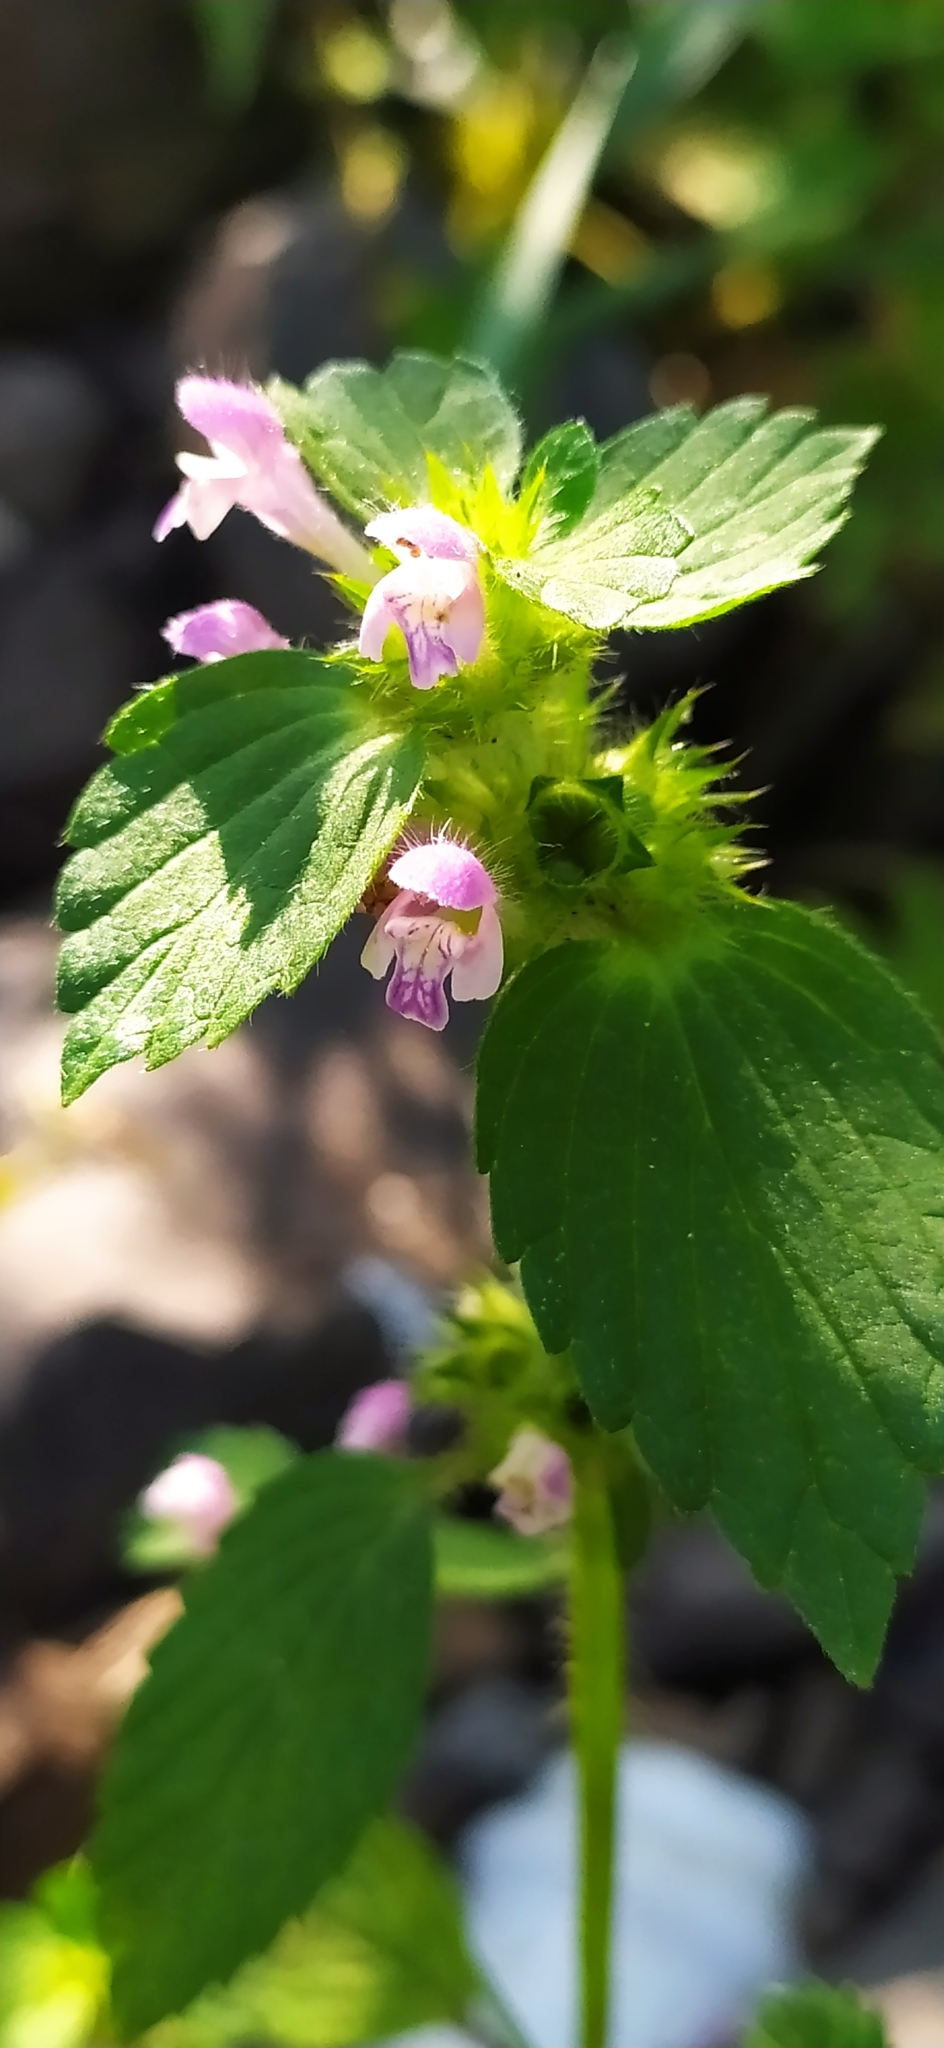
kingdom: Plantae
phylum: Tracheophyta
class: Magnoliopsida
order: Lamiales
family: Lamiaceae
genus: Galeopsis
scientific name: Galeopsis bifida
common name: Bifid hemp-nettle
